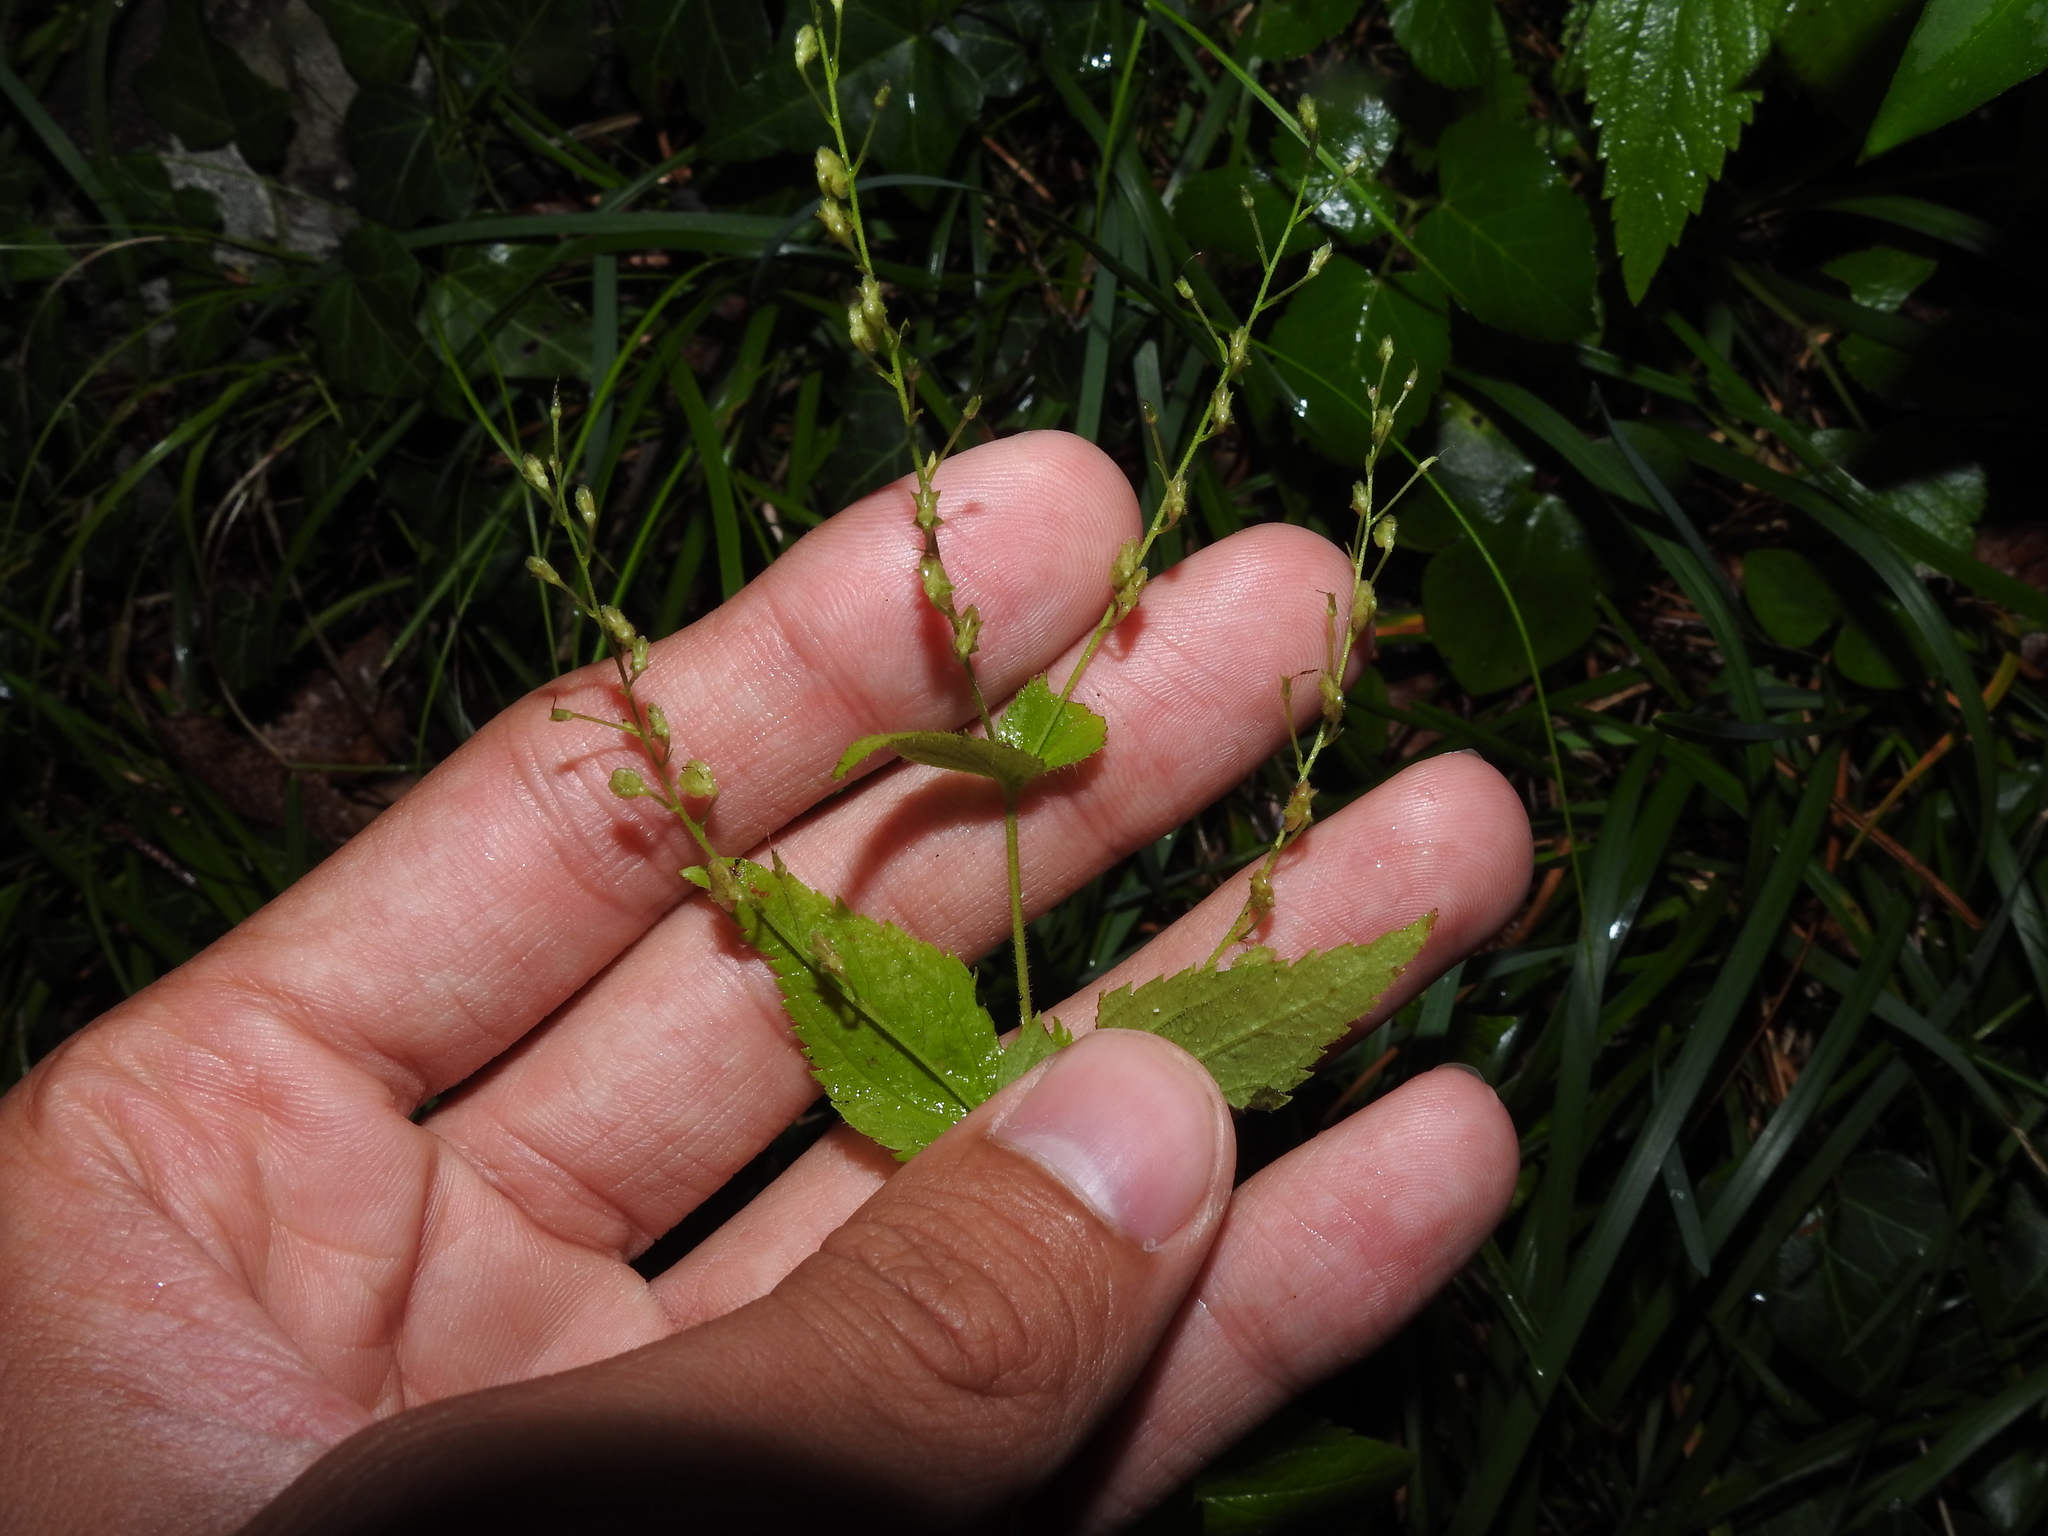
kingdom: Plantae
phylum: Tracheophyta
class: Magnoliopsida
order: Lamiales
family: Plantaginaceae
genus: Veronica
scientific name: Veronica urticifolia
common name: Nettle-leaf speedwell
